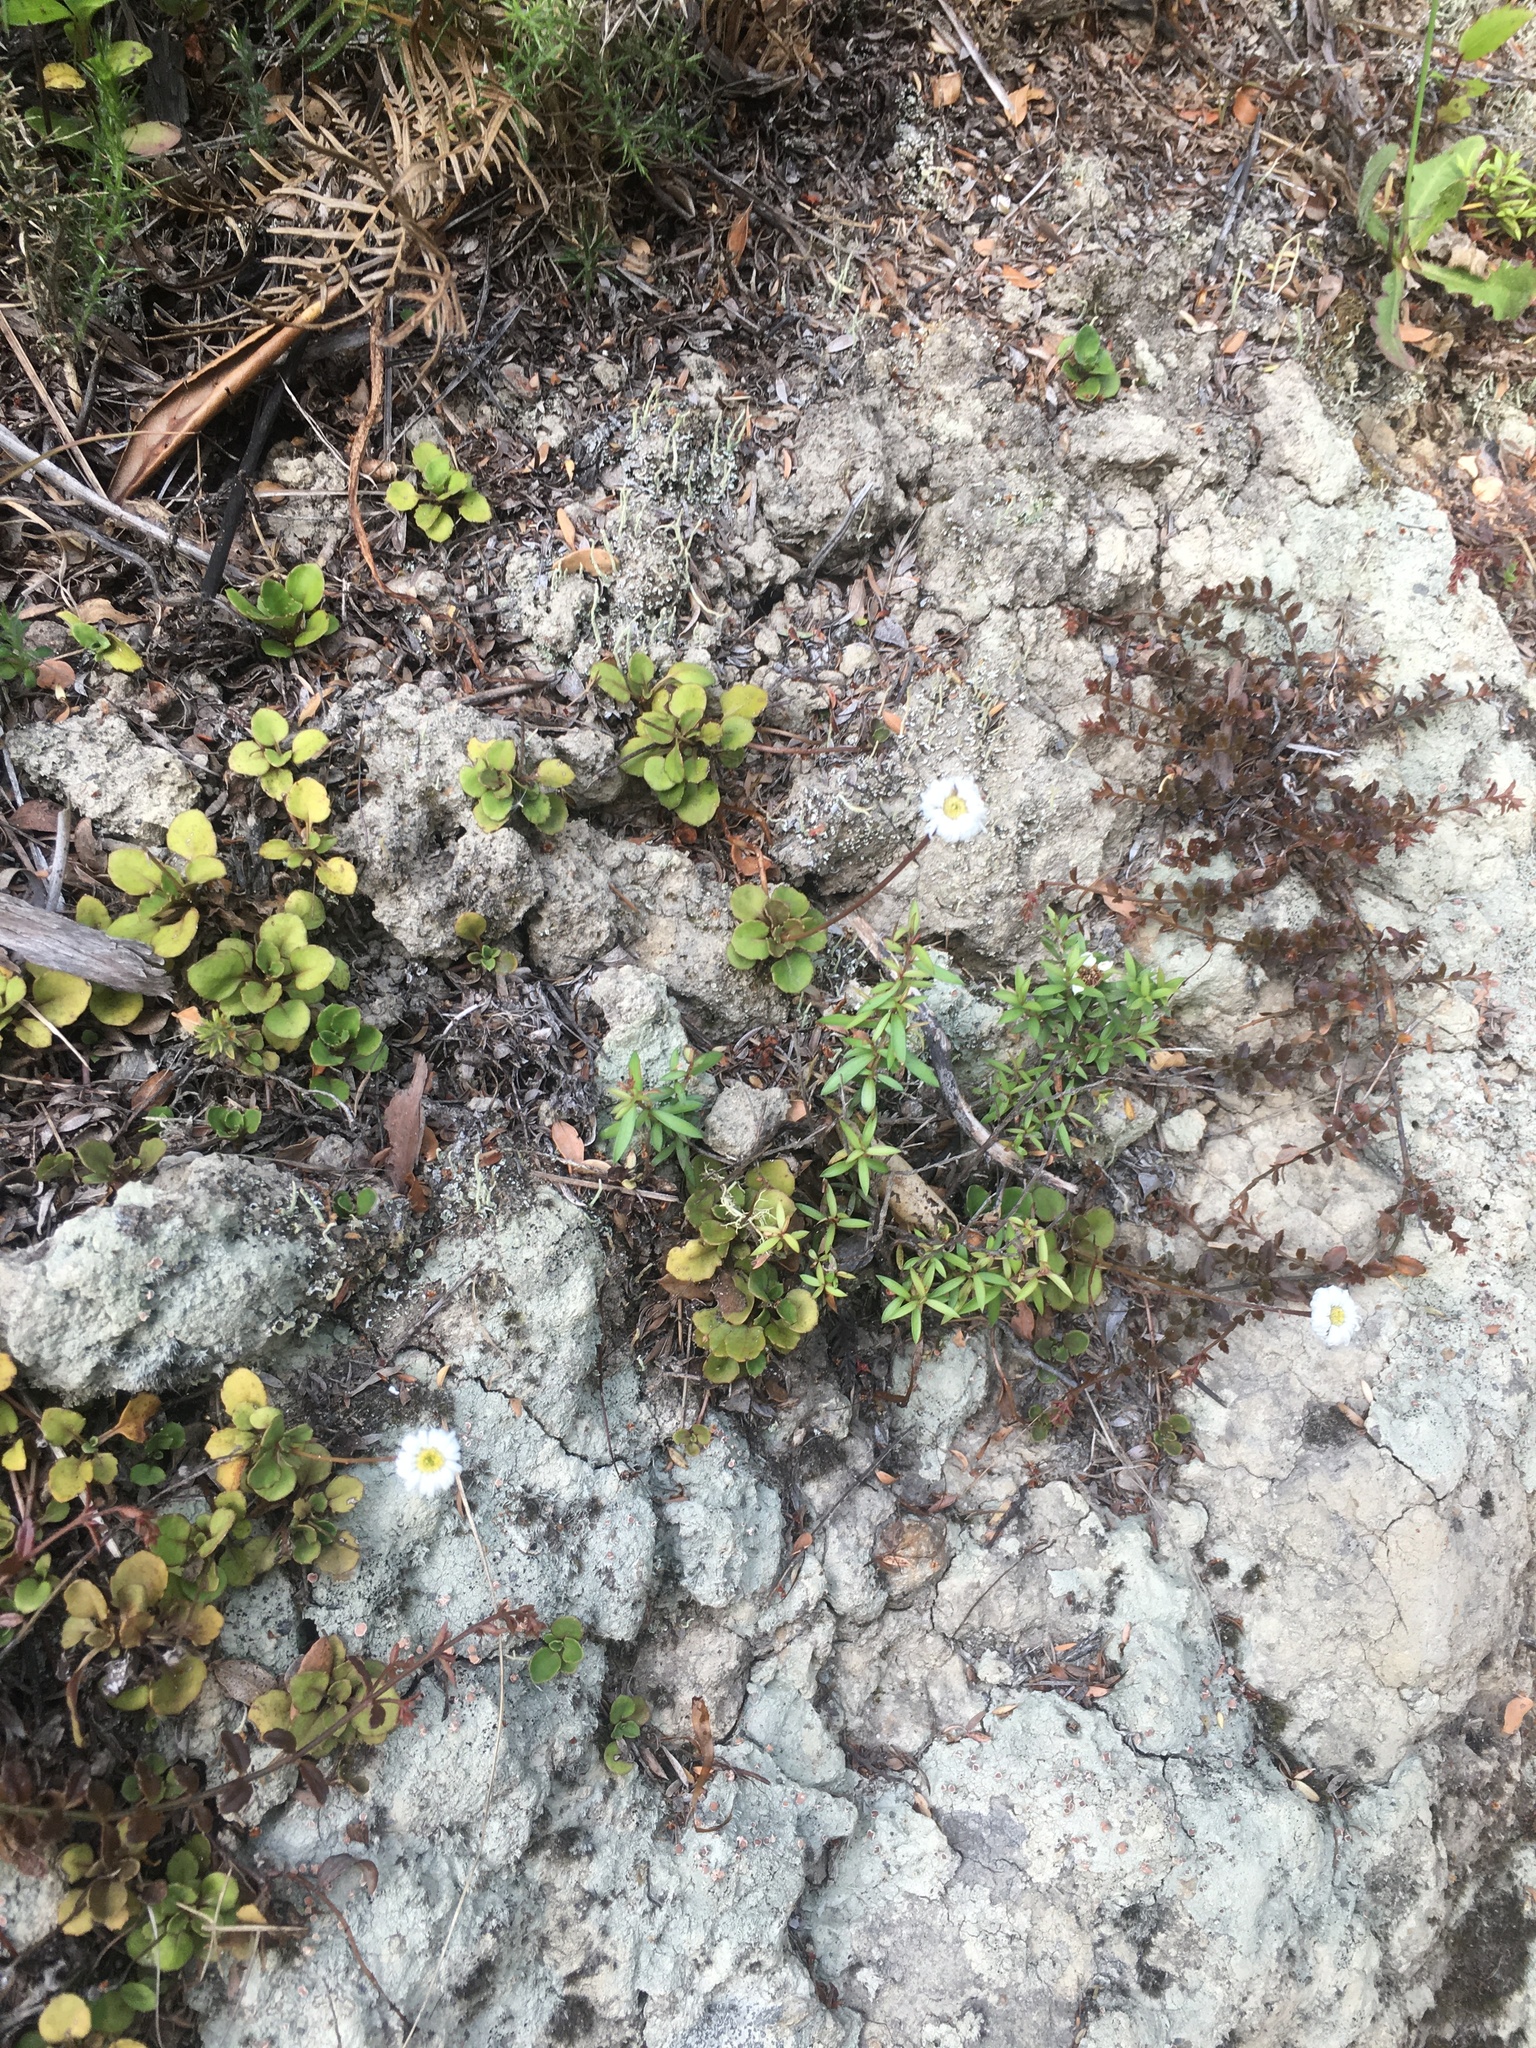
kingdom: Plantae
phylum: Tracheophyta
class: Magnoliopsida
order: Asterales
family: Asteraceae
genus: Lagenophora
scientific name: Lagenophora pumila
